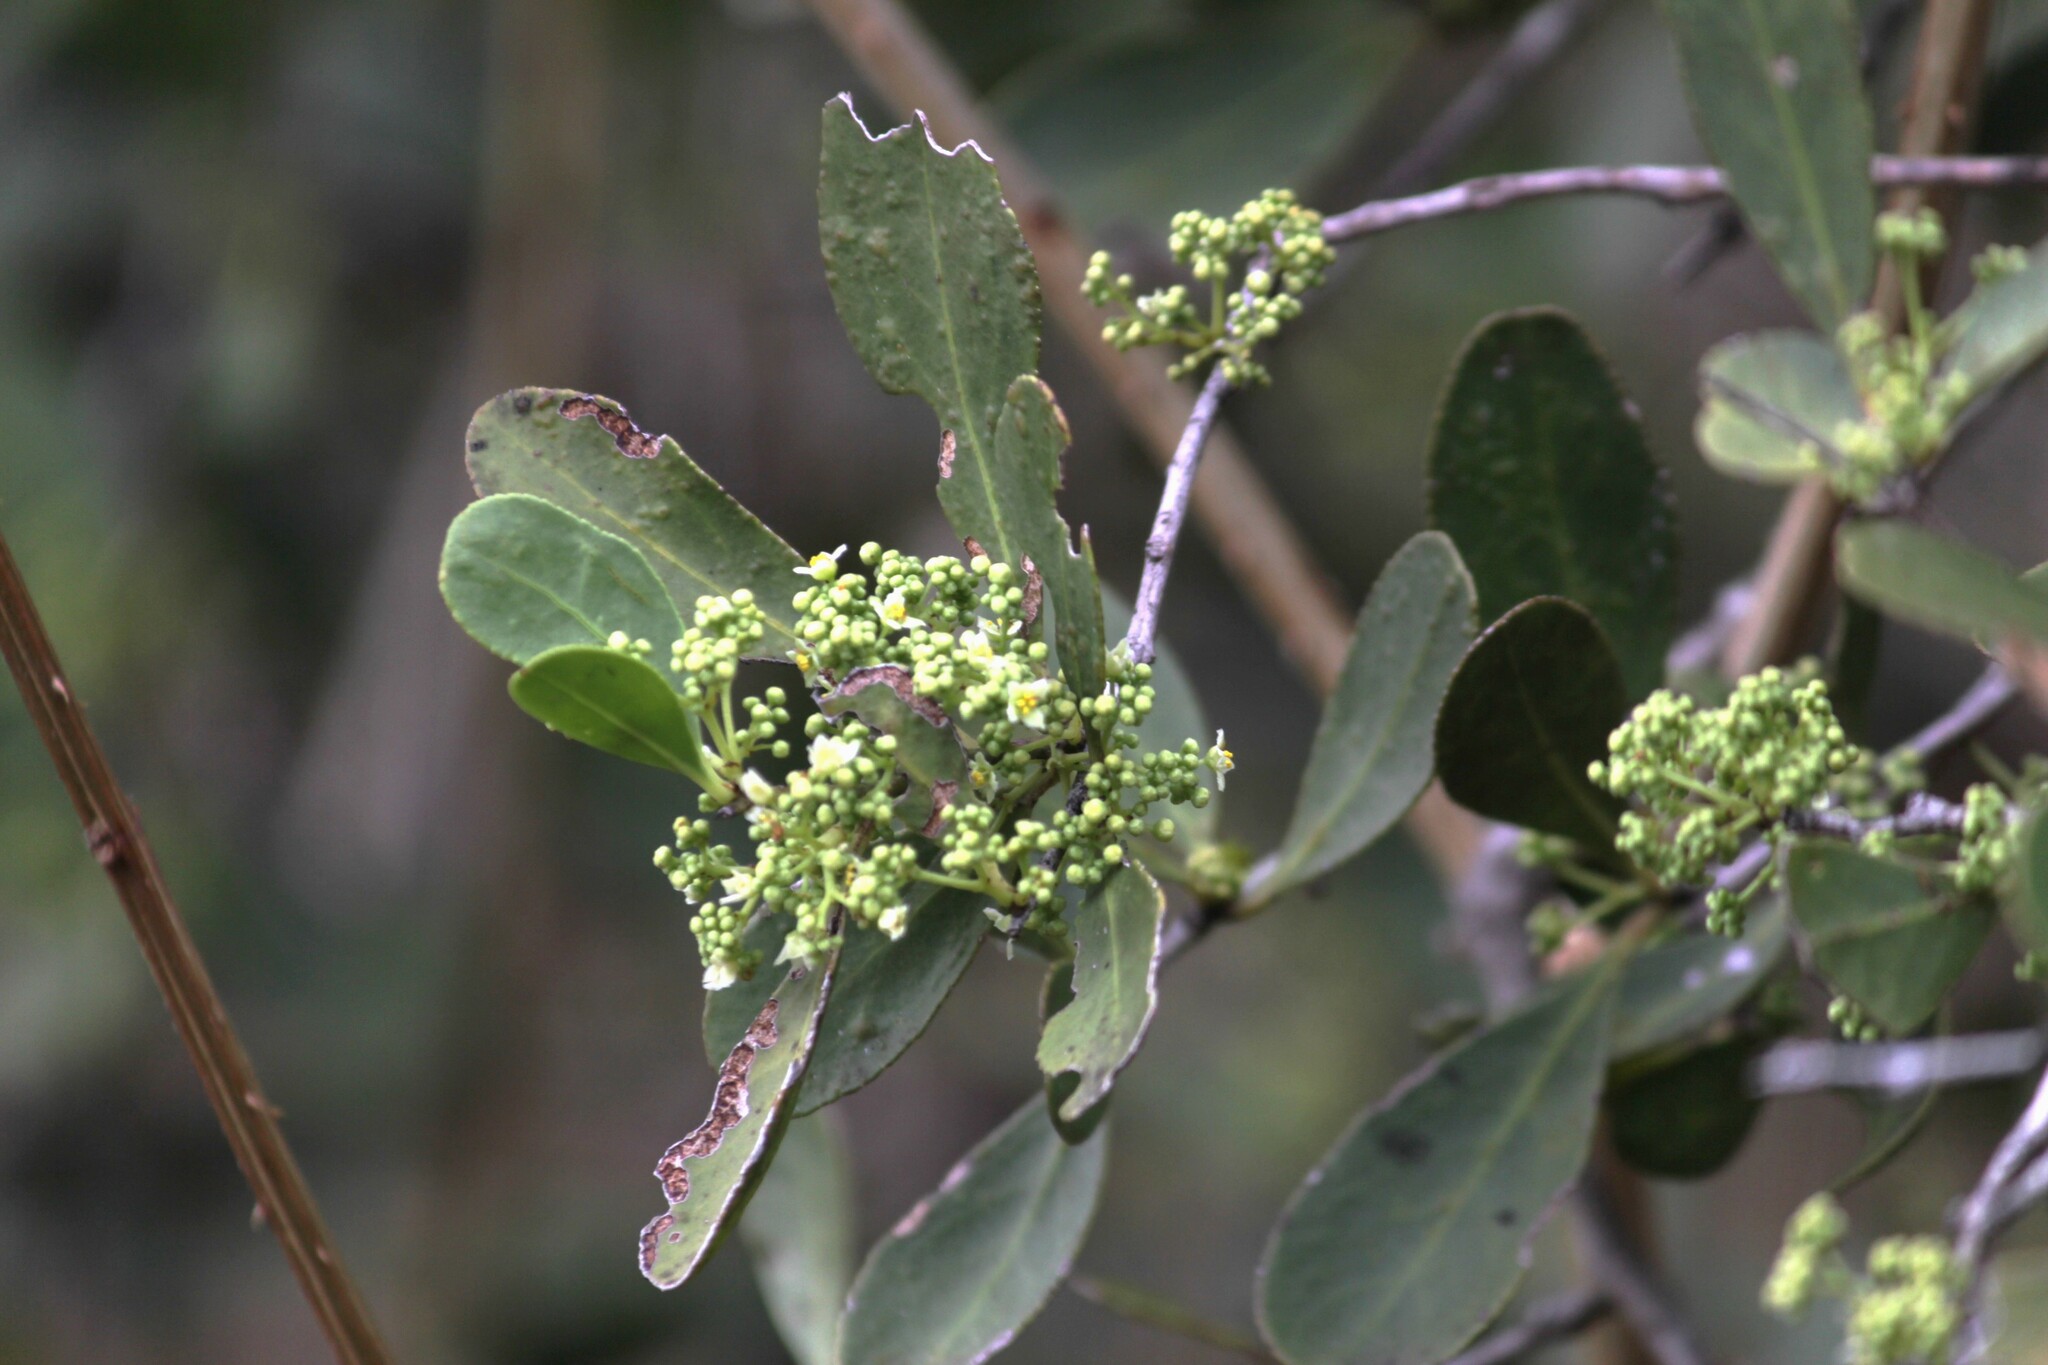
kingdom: Plantae
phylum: Tracheophyta
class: Magnoliopsida
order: Celastrales
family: Celastraceae
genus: Gymnosporia
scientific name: Gymnosporia senegalensis
